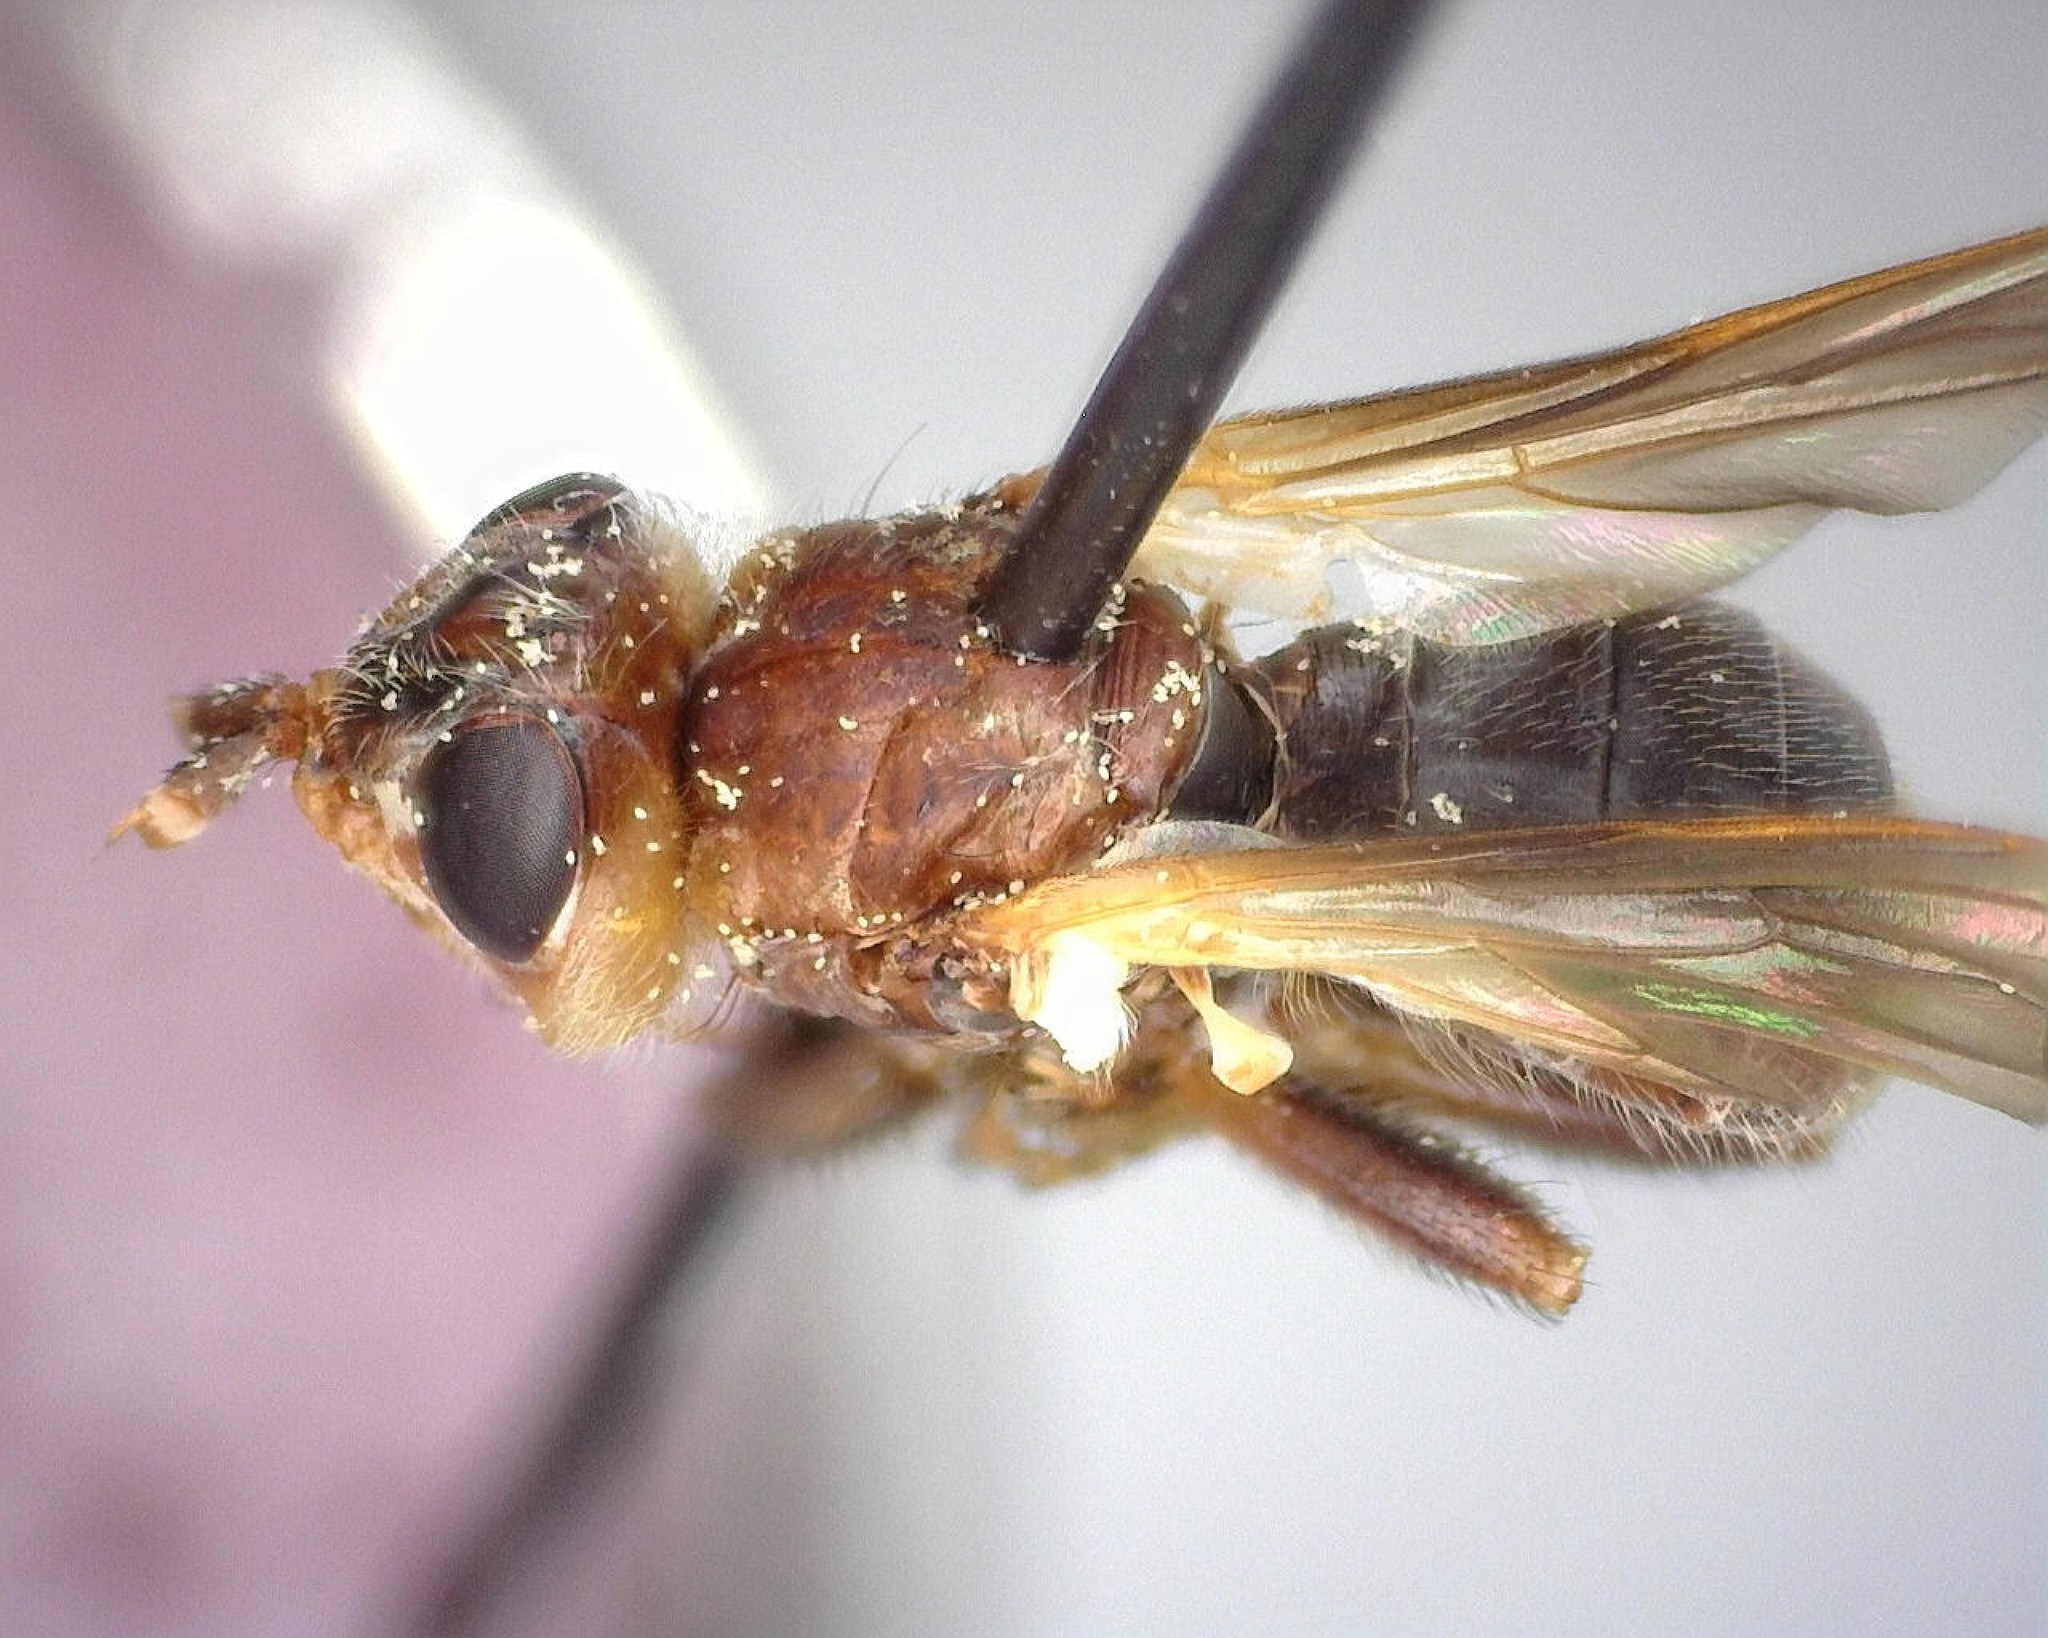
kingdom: Animalia
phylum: Arthropoda
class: Insecta
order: Diptera
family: Conopidae
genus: Myopa
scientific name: Myopa vesiculosa
